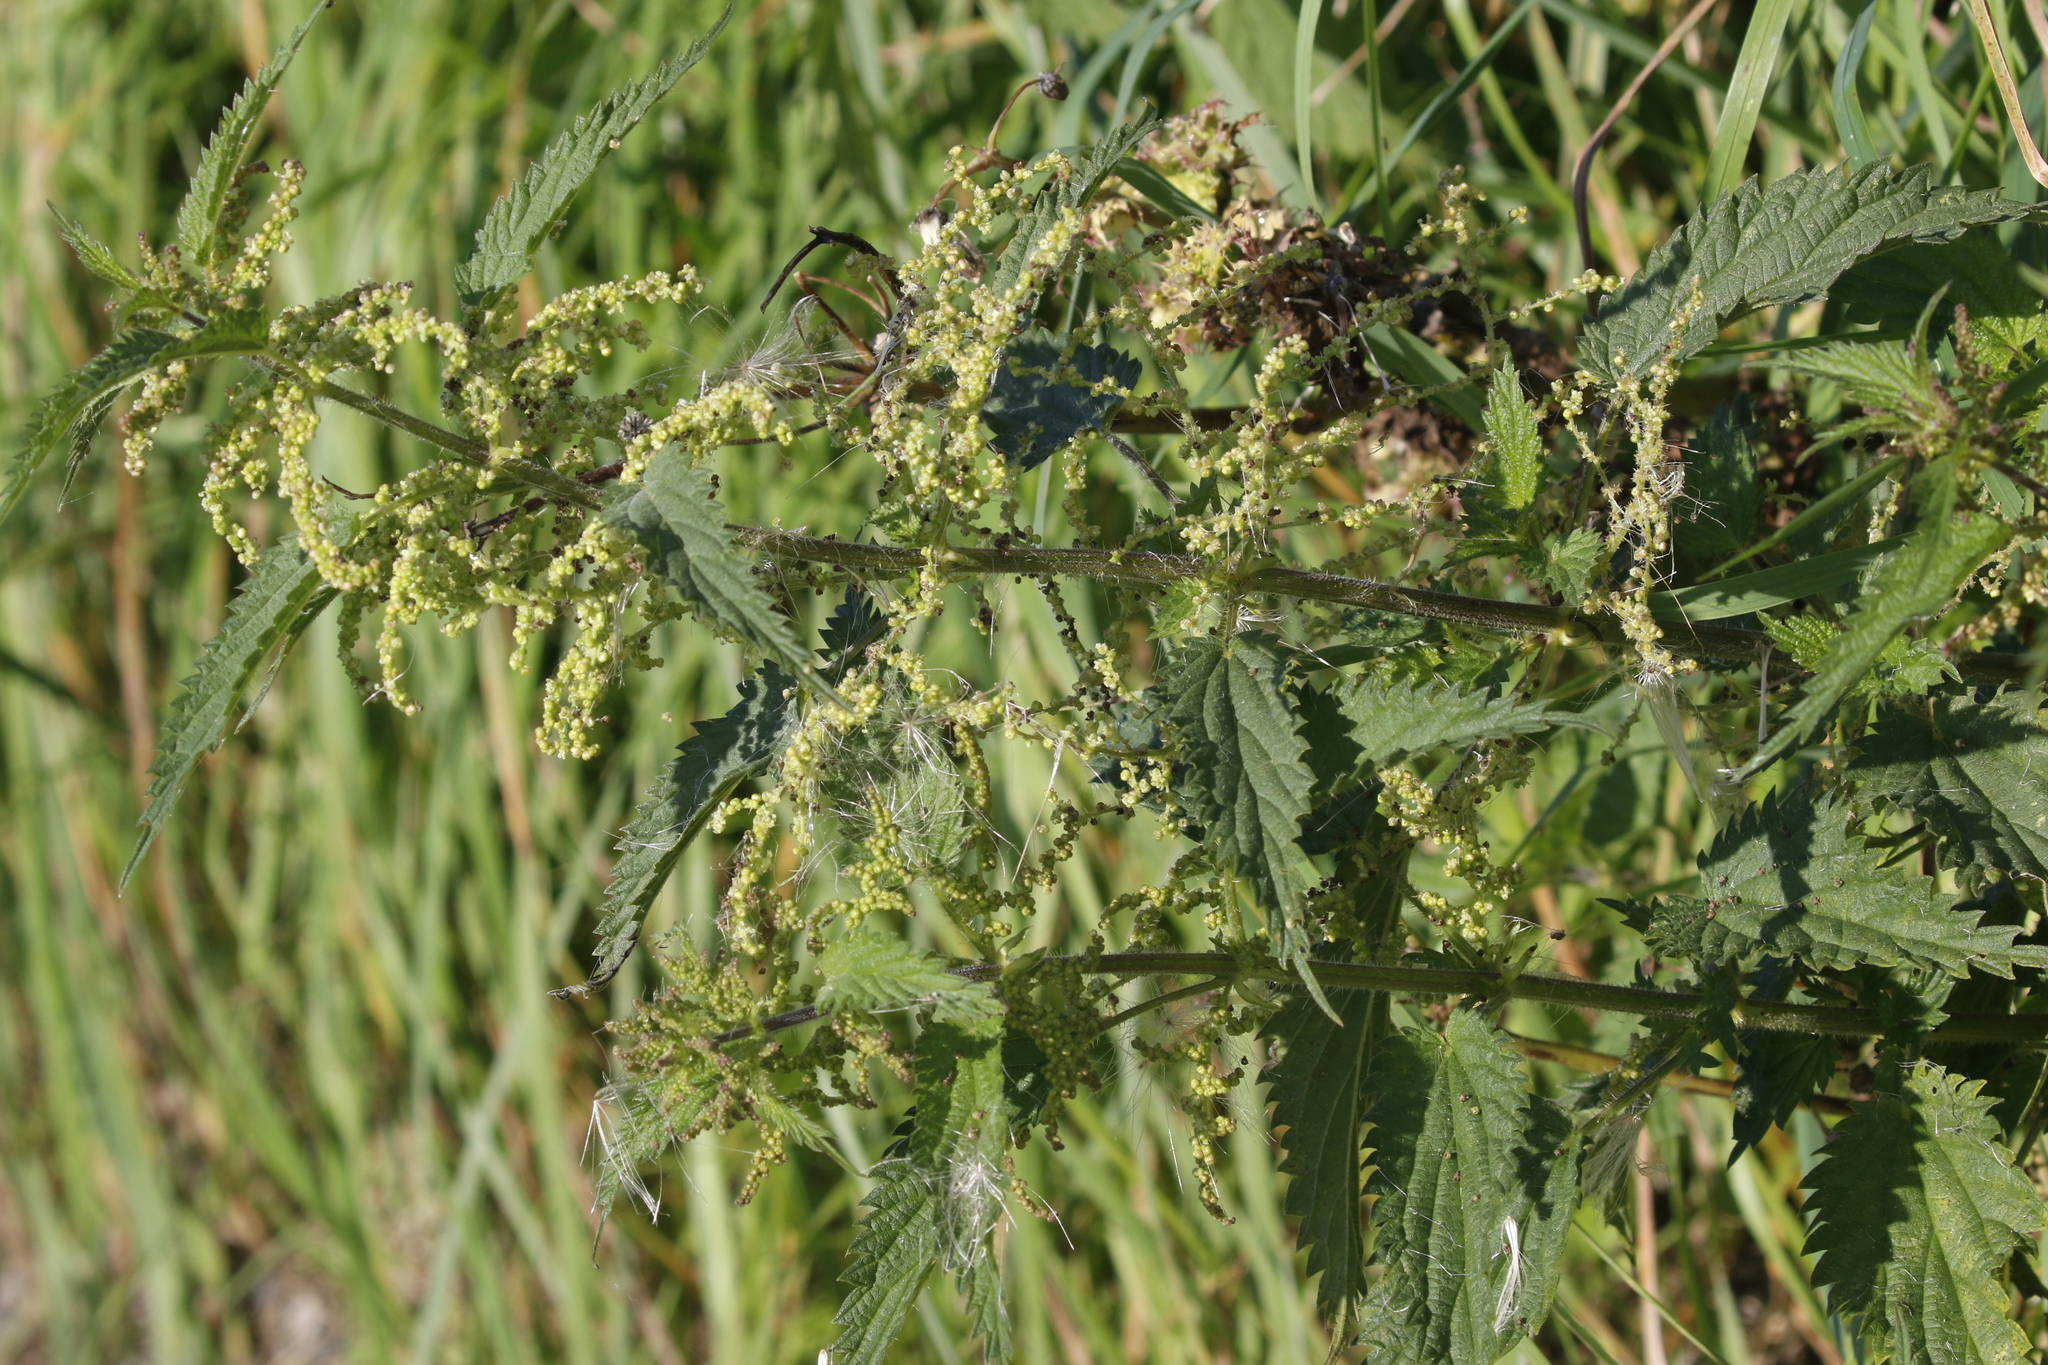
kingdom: Plantae
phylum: Tracheophyta
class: Magnoliopsida
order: Rosales
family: Urticaceae
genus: Urtica
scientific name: Urtica dioica
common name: Common nettle
